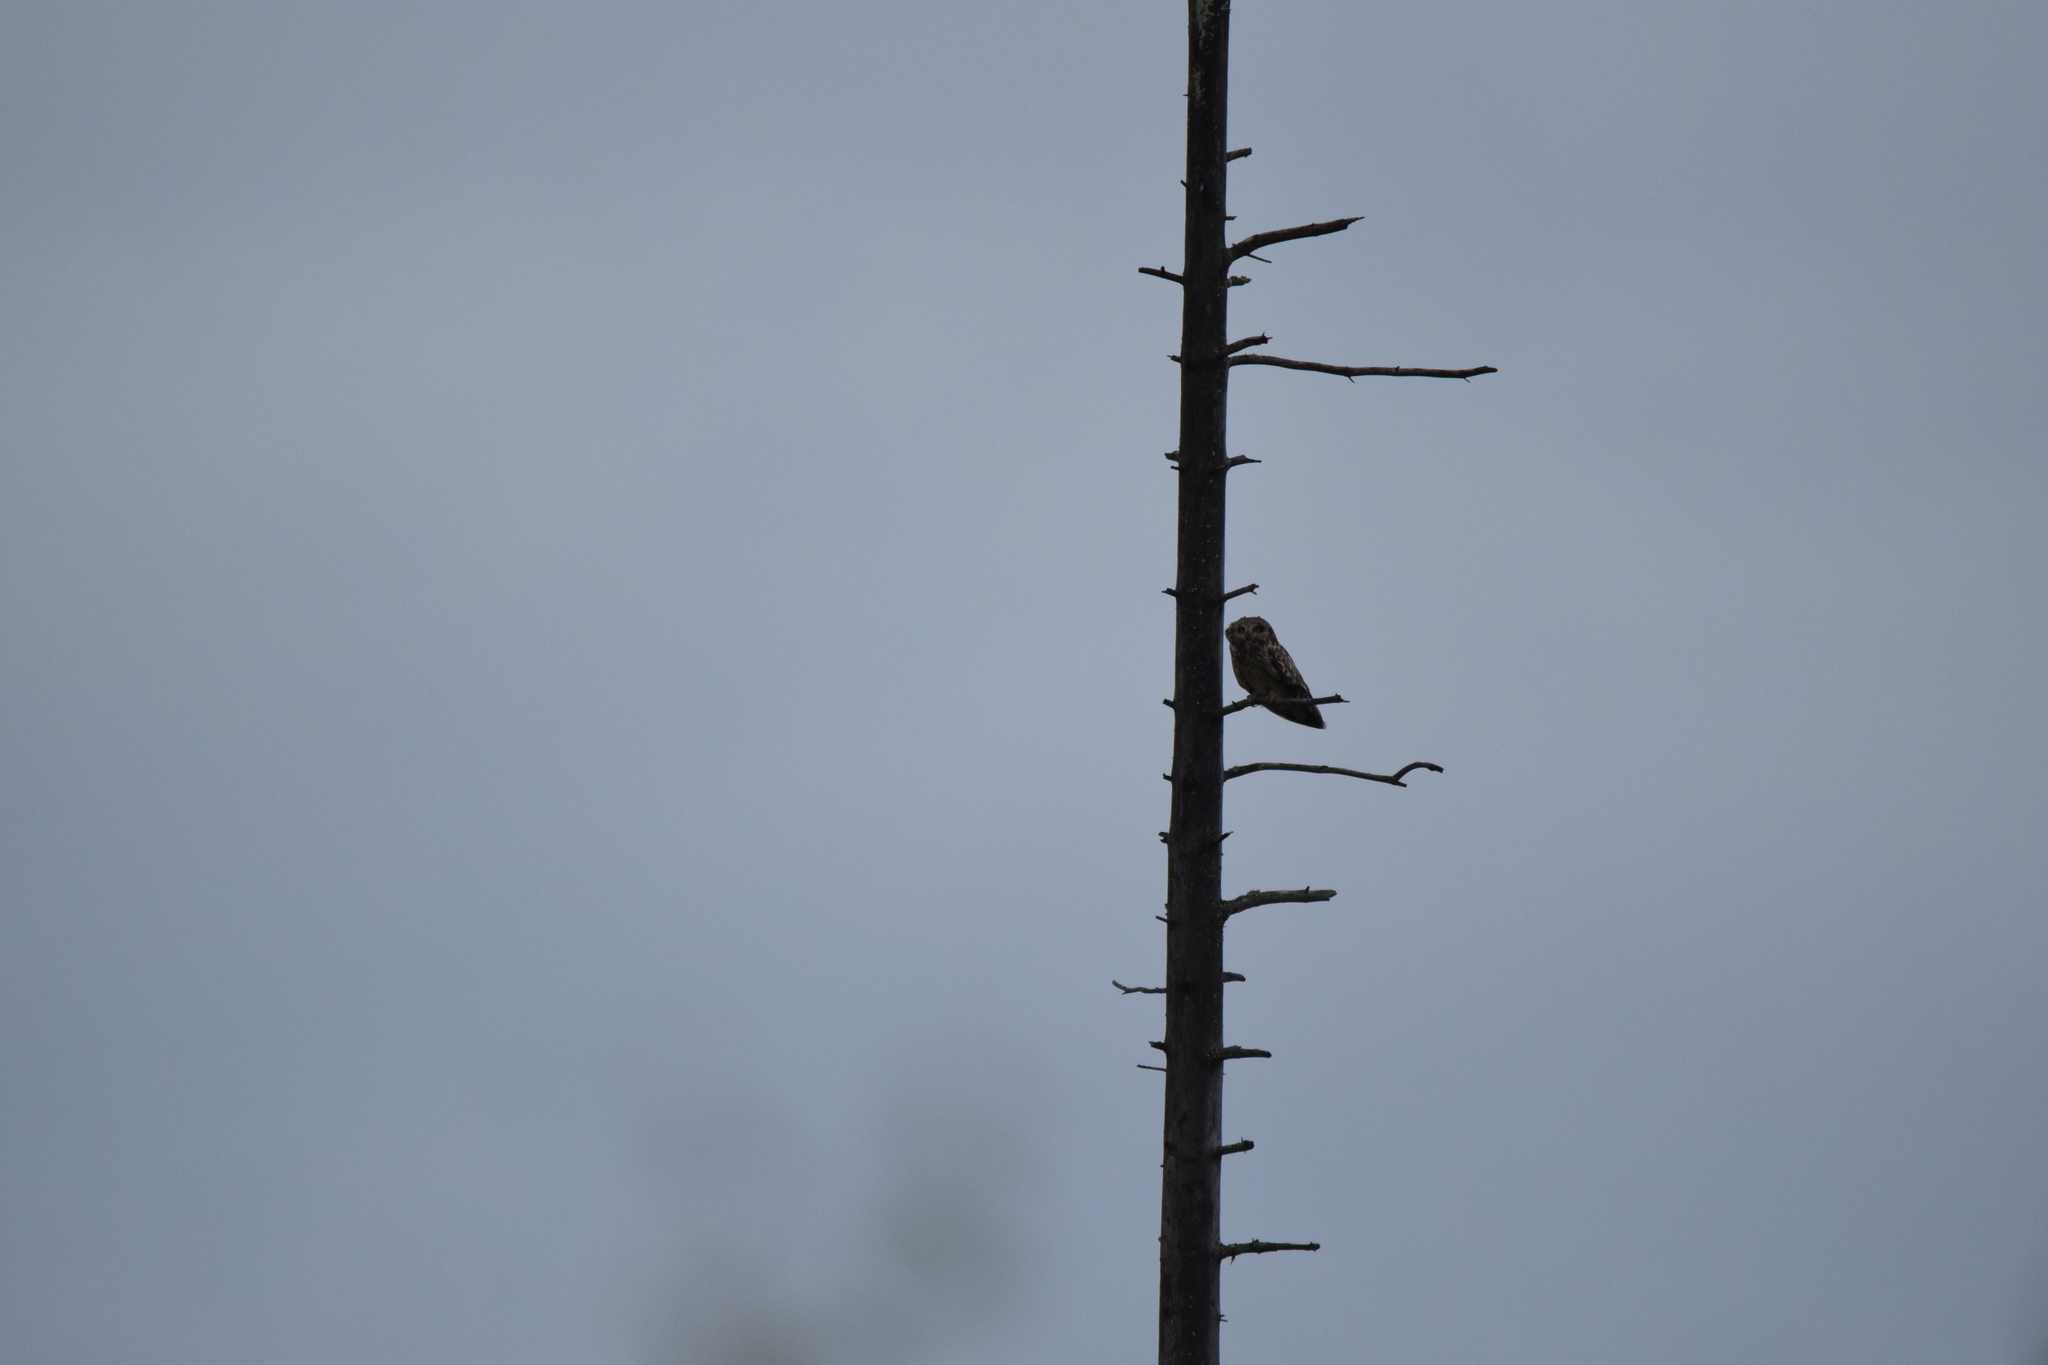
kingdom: Animalia
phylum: Chordata
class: Aves
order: Strigiformes
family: Strigidae
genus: Asio
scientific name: Asio flammeus
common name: Short-eared owl
